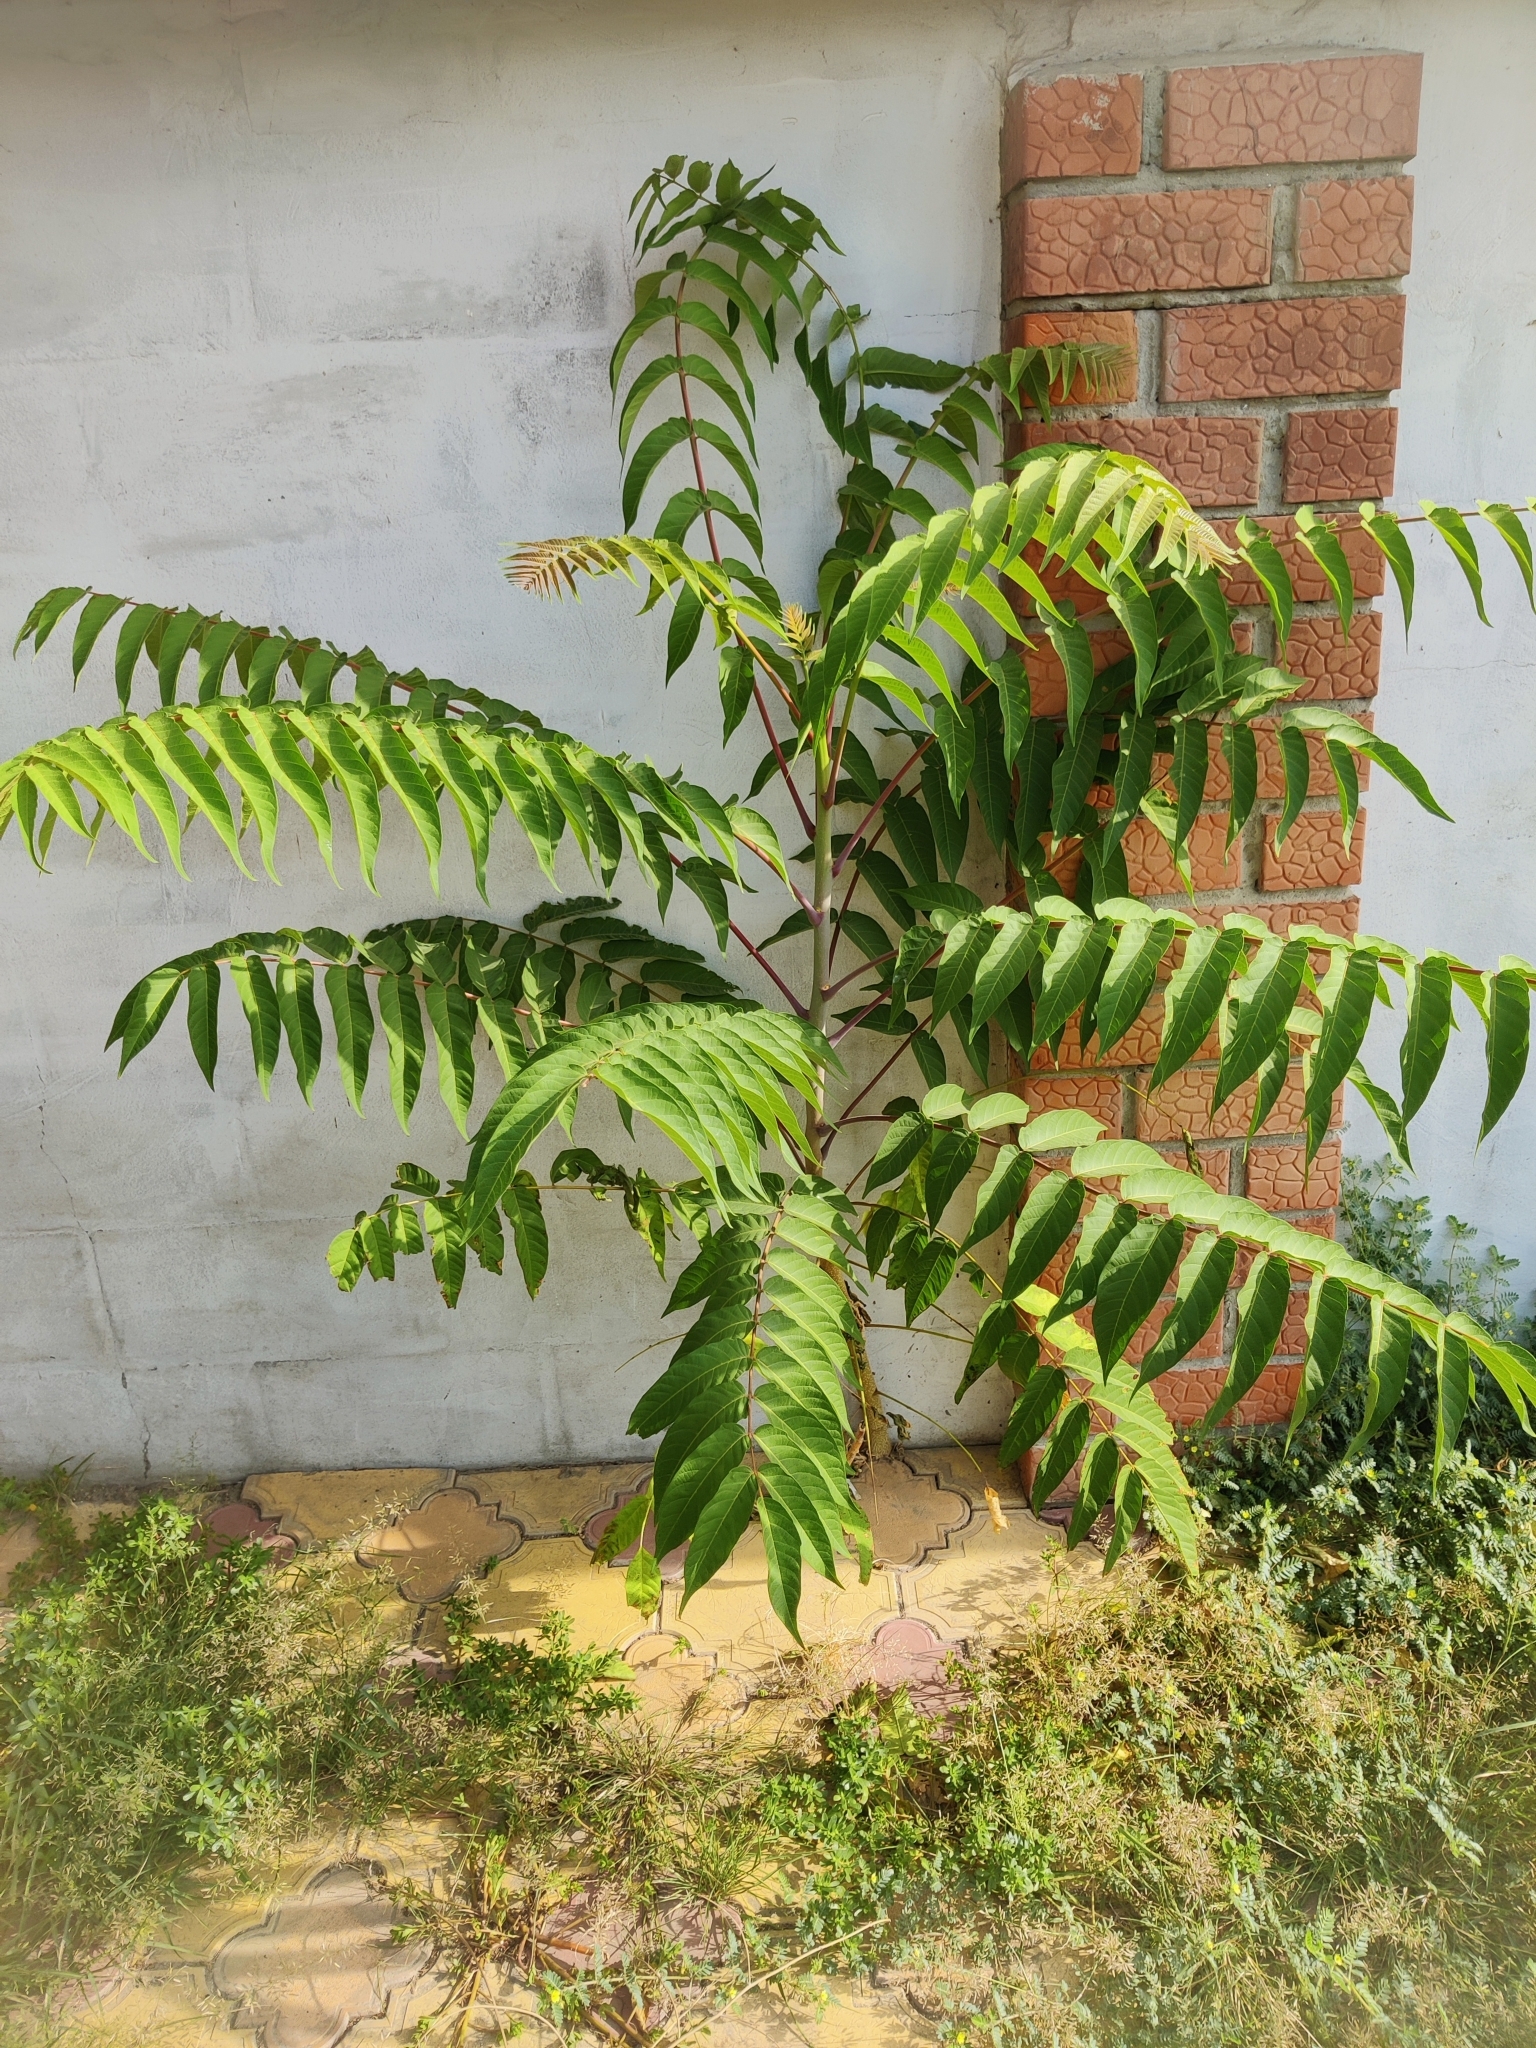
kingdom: Plantae
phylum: Tracheophyta
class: Magnoliopsida
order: Sapindales
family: Simaroubaceae
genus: Ailanthus
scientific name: Ailanthus altissima
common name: Tree-of-heaven
